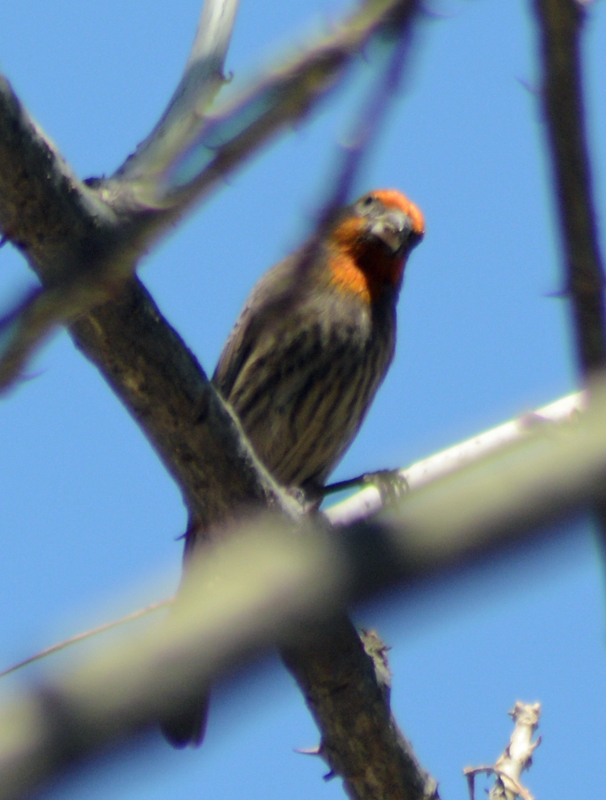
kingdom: Animalia
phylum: Chordata
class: Aves
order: Passeriformes
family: Fringillidae
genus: Haemorhous
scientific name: Haemorhous mexicanus
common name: House finch
